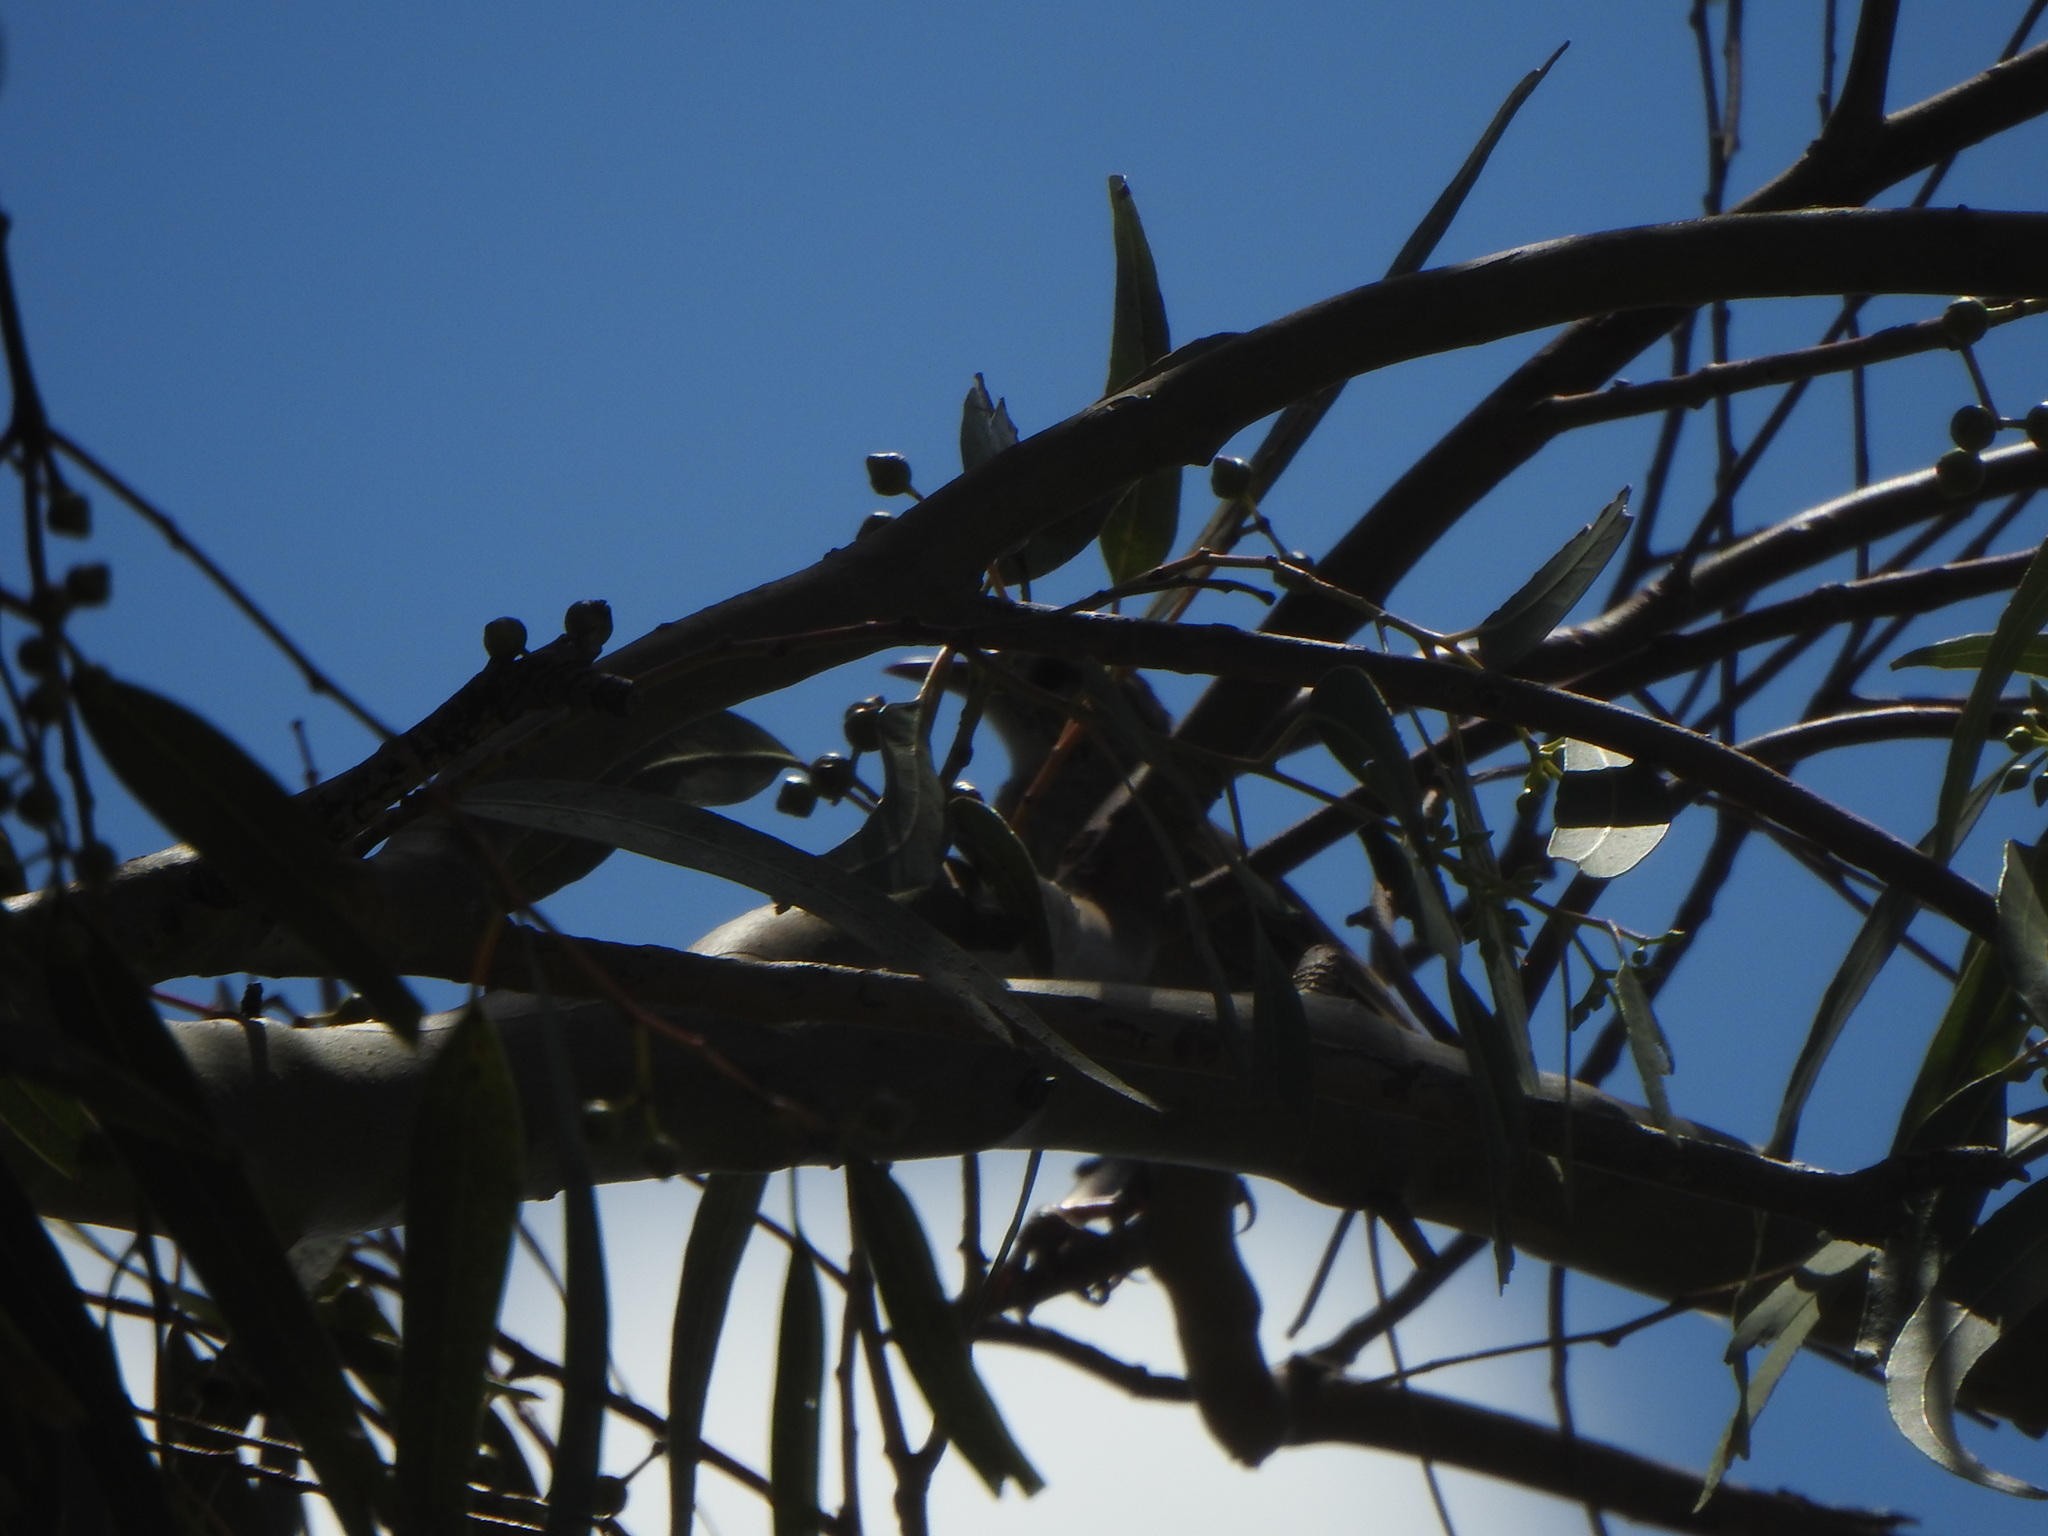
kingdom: Animalia
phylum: Chordata
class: Aves
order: Passeriformes
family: Furnariidae
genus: Anumbius
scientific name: Anumbius annumbi
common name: Firewood-gatherer
